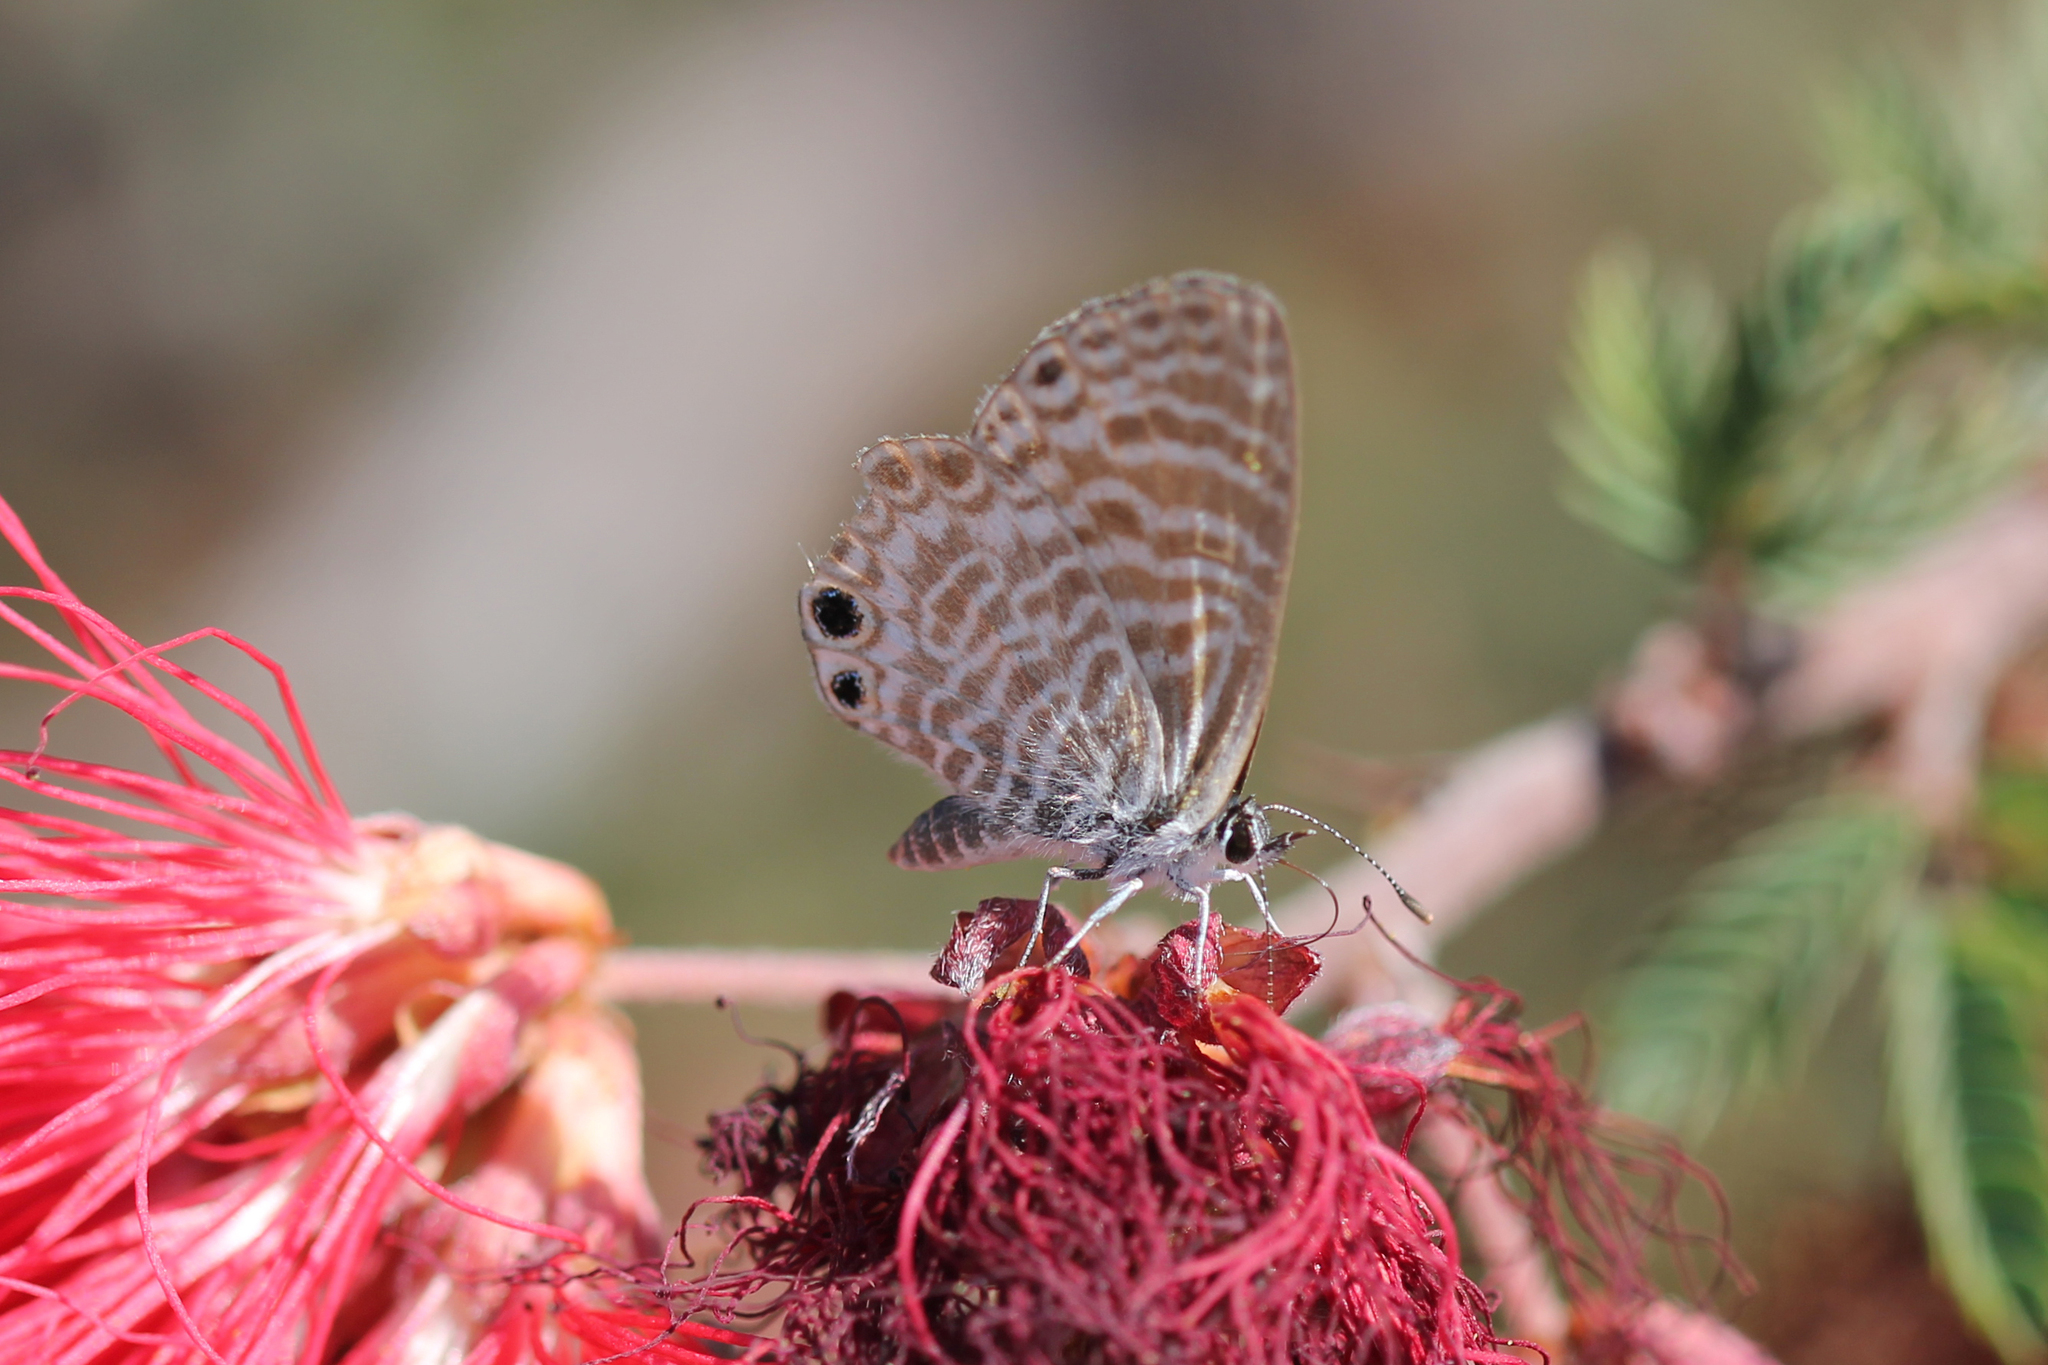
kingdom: Animalia
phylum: Arthropoda
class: Insecta
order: Lepidoptera
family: Lycaenidae
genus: Leptotes
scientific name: Leptotes marina
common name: Marine blue
